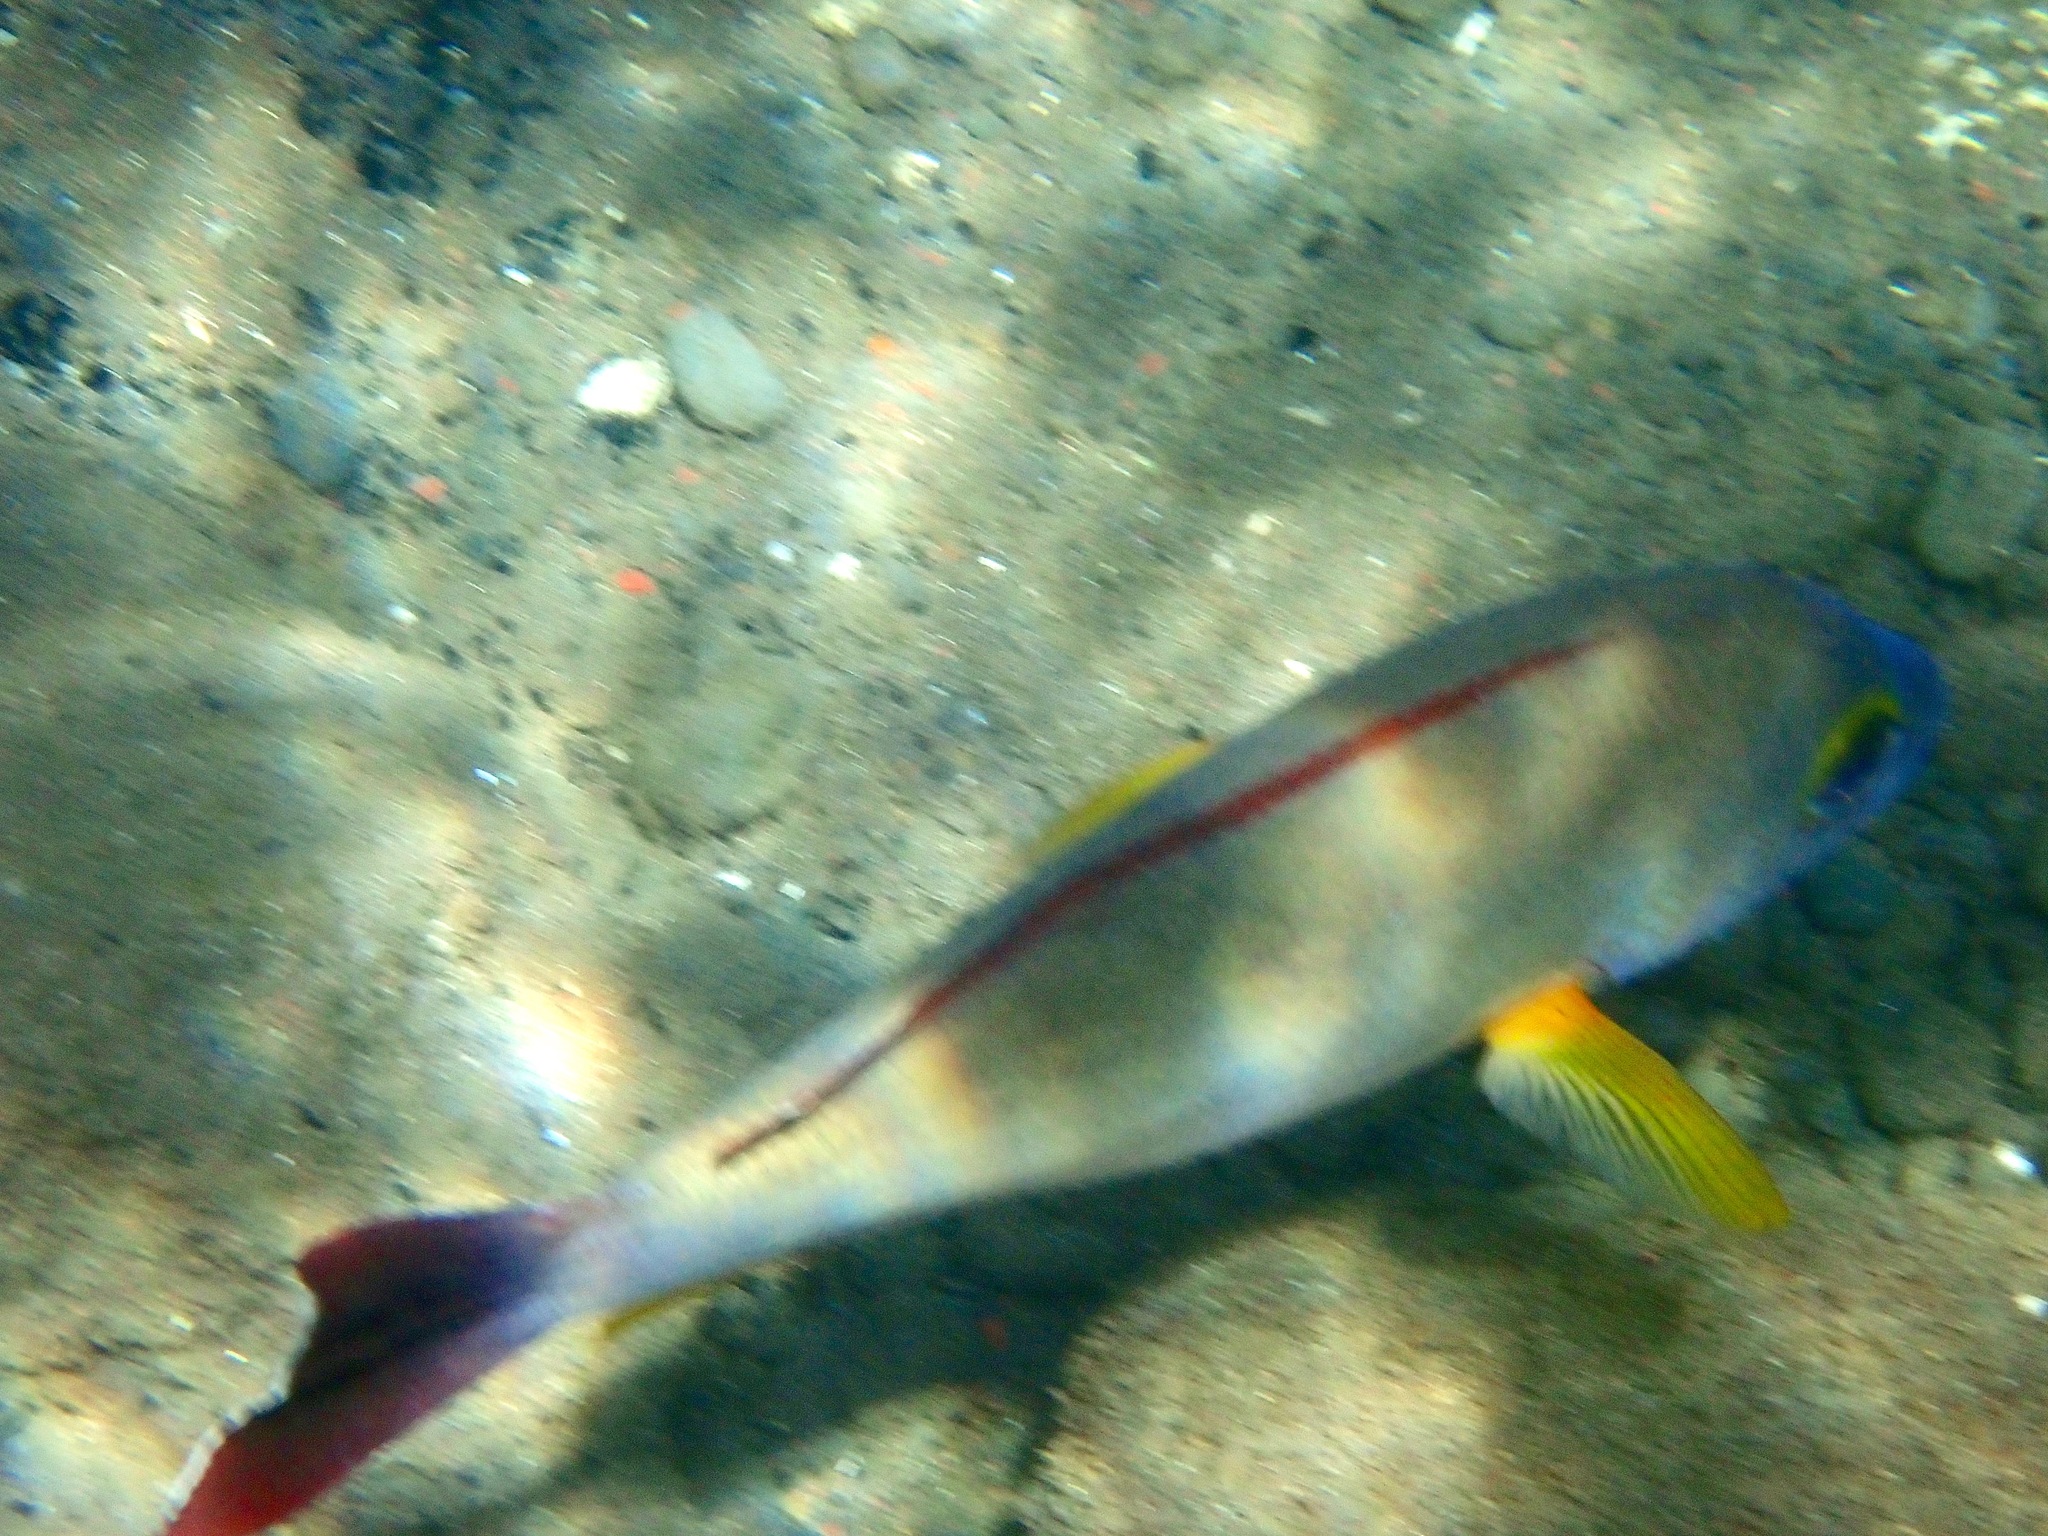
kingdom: Animalia
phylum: Chordata
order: Perciformes
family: Lutjanidae
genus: Lutjanus
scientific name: Lutjanus fulvus
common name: Blacktail snapper
